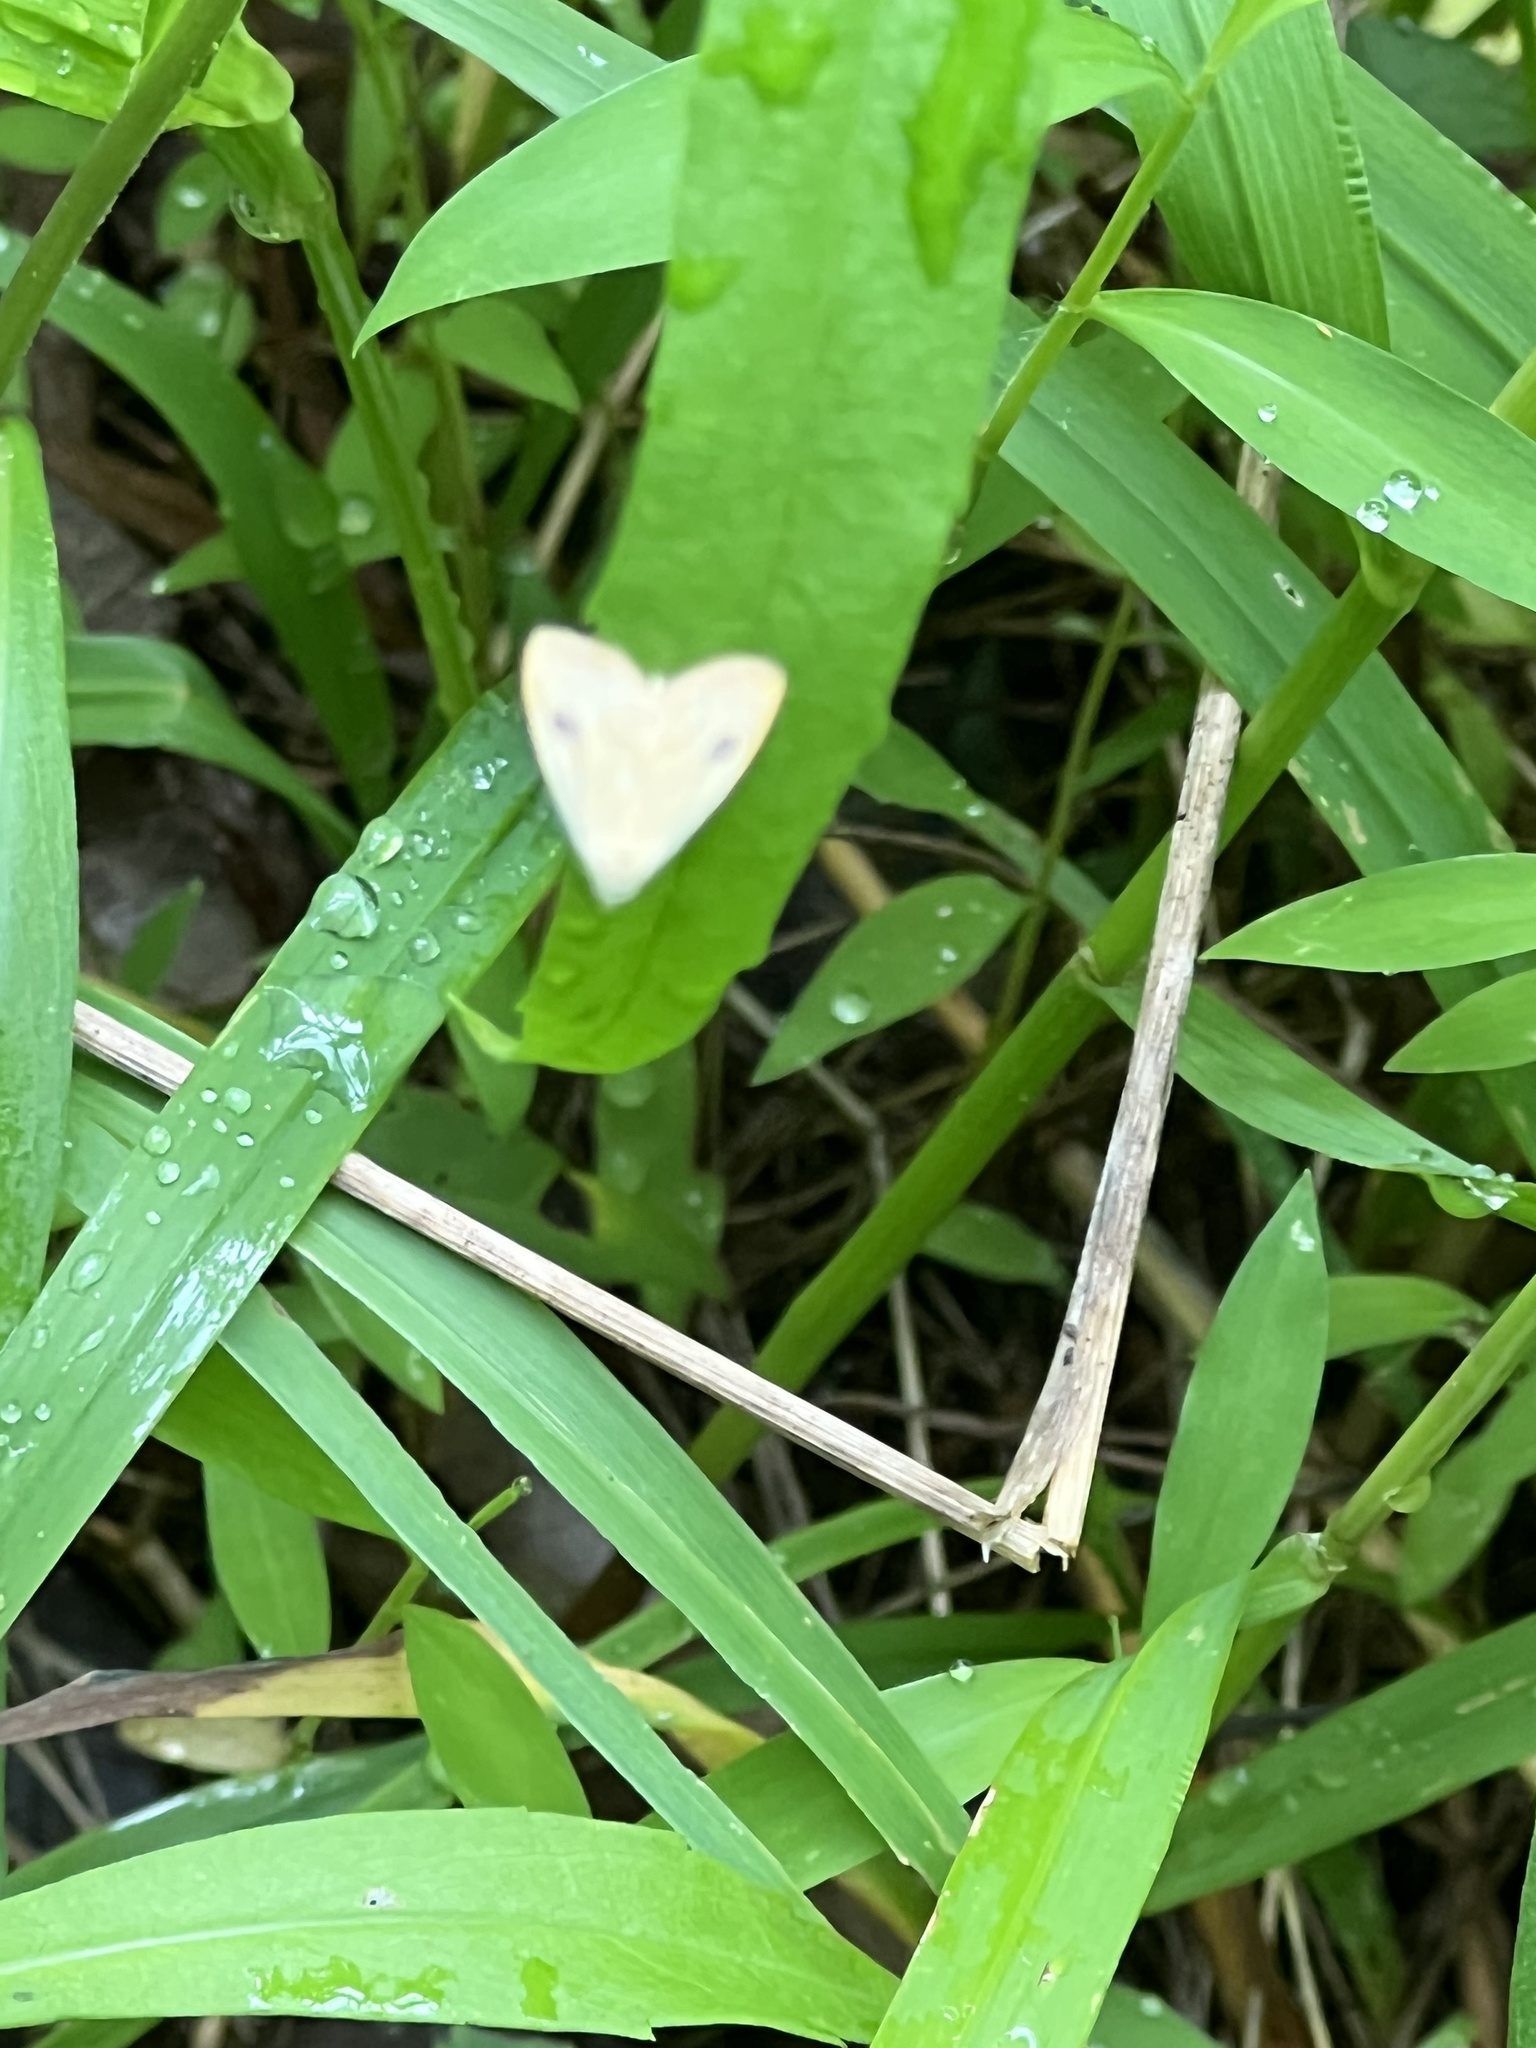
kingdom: Animalia
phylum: Arthropoda
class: Insecta
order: Lepidoptera
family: Erebidae
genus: Rivula
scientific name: Rivula propinqualis
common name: Spotted grass moth
